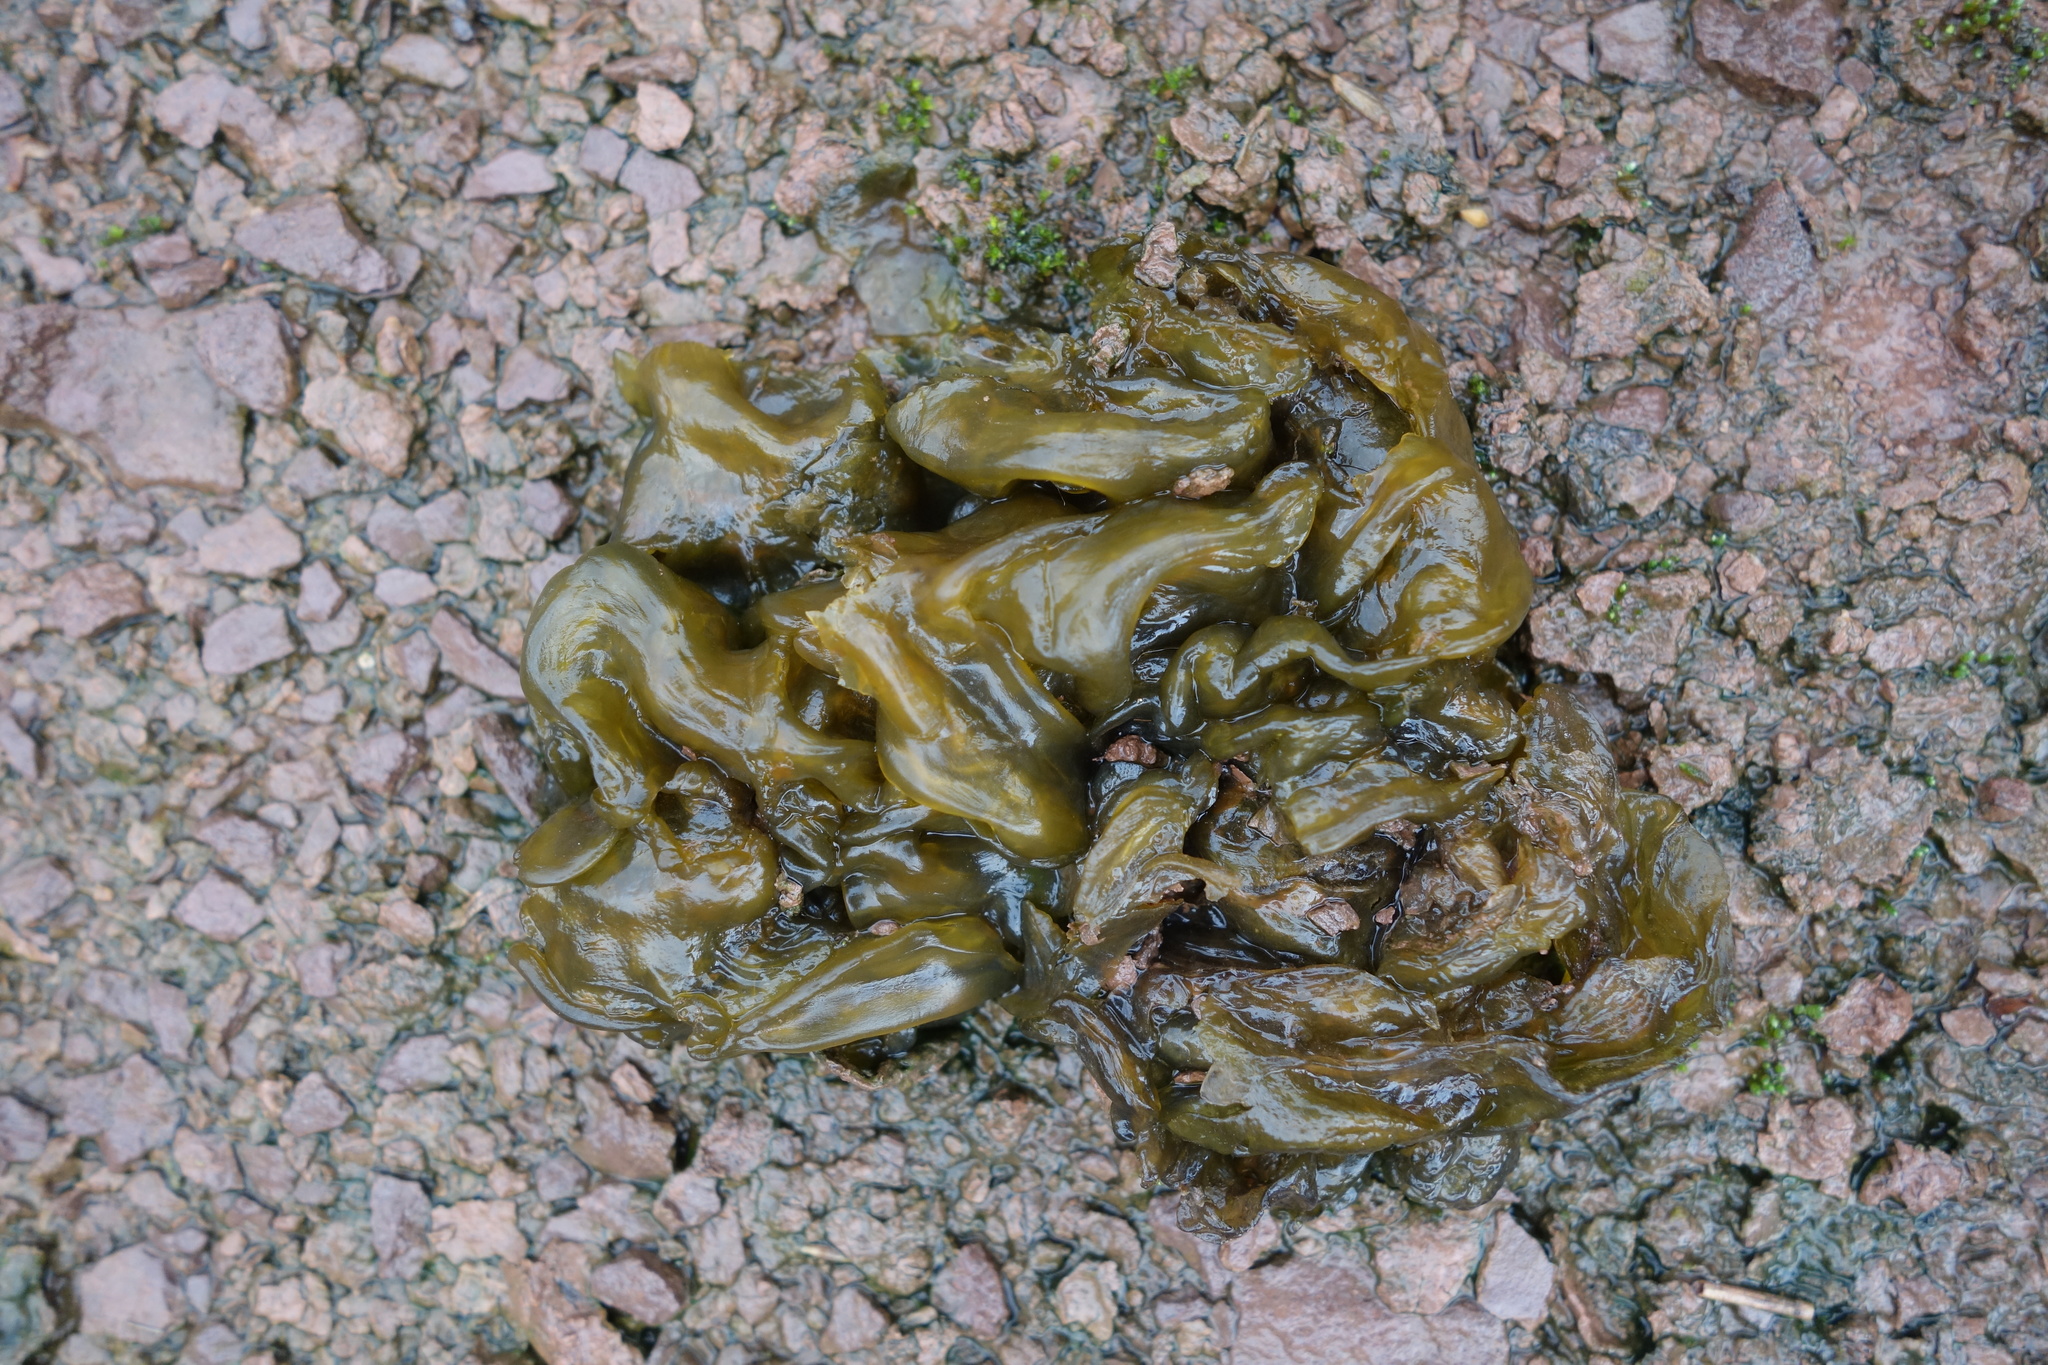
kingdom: Bacteria
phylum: Cyanobacteria
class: Cyanobacteriia
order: Cyanobacteriales
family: Nostocaceae
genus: Nostoc
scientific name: Nostoc commune
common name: Star jelly
